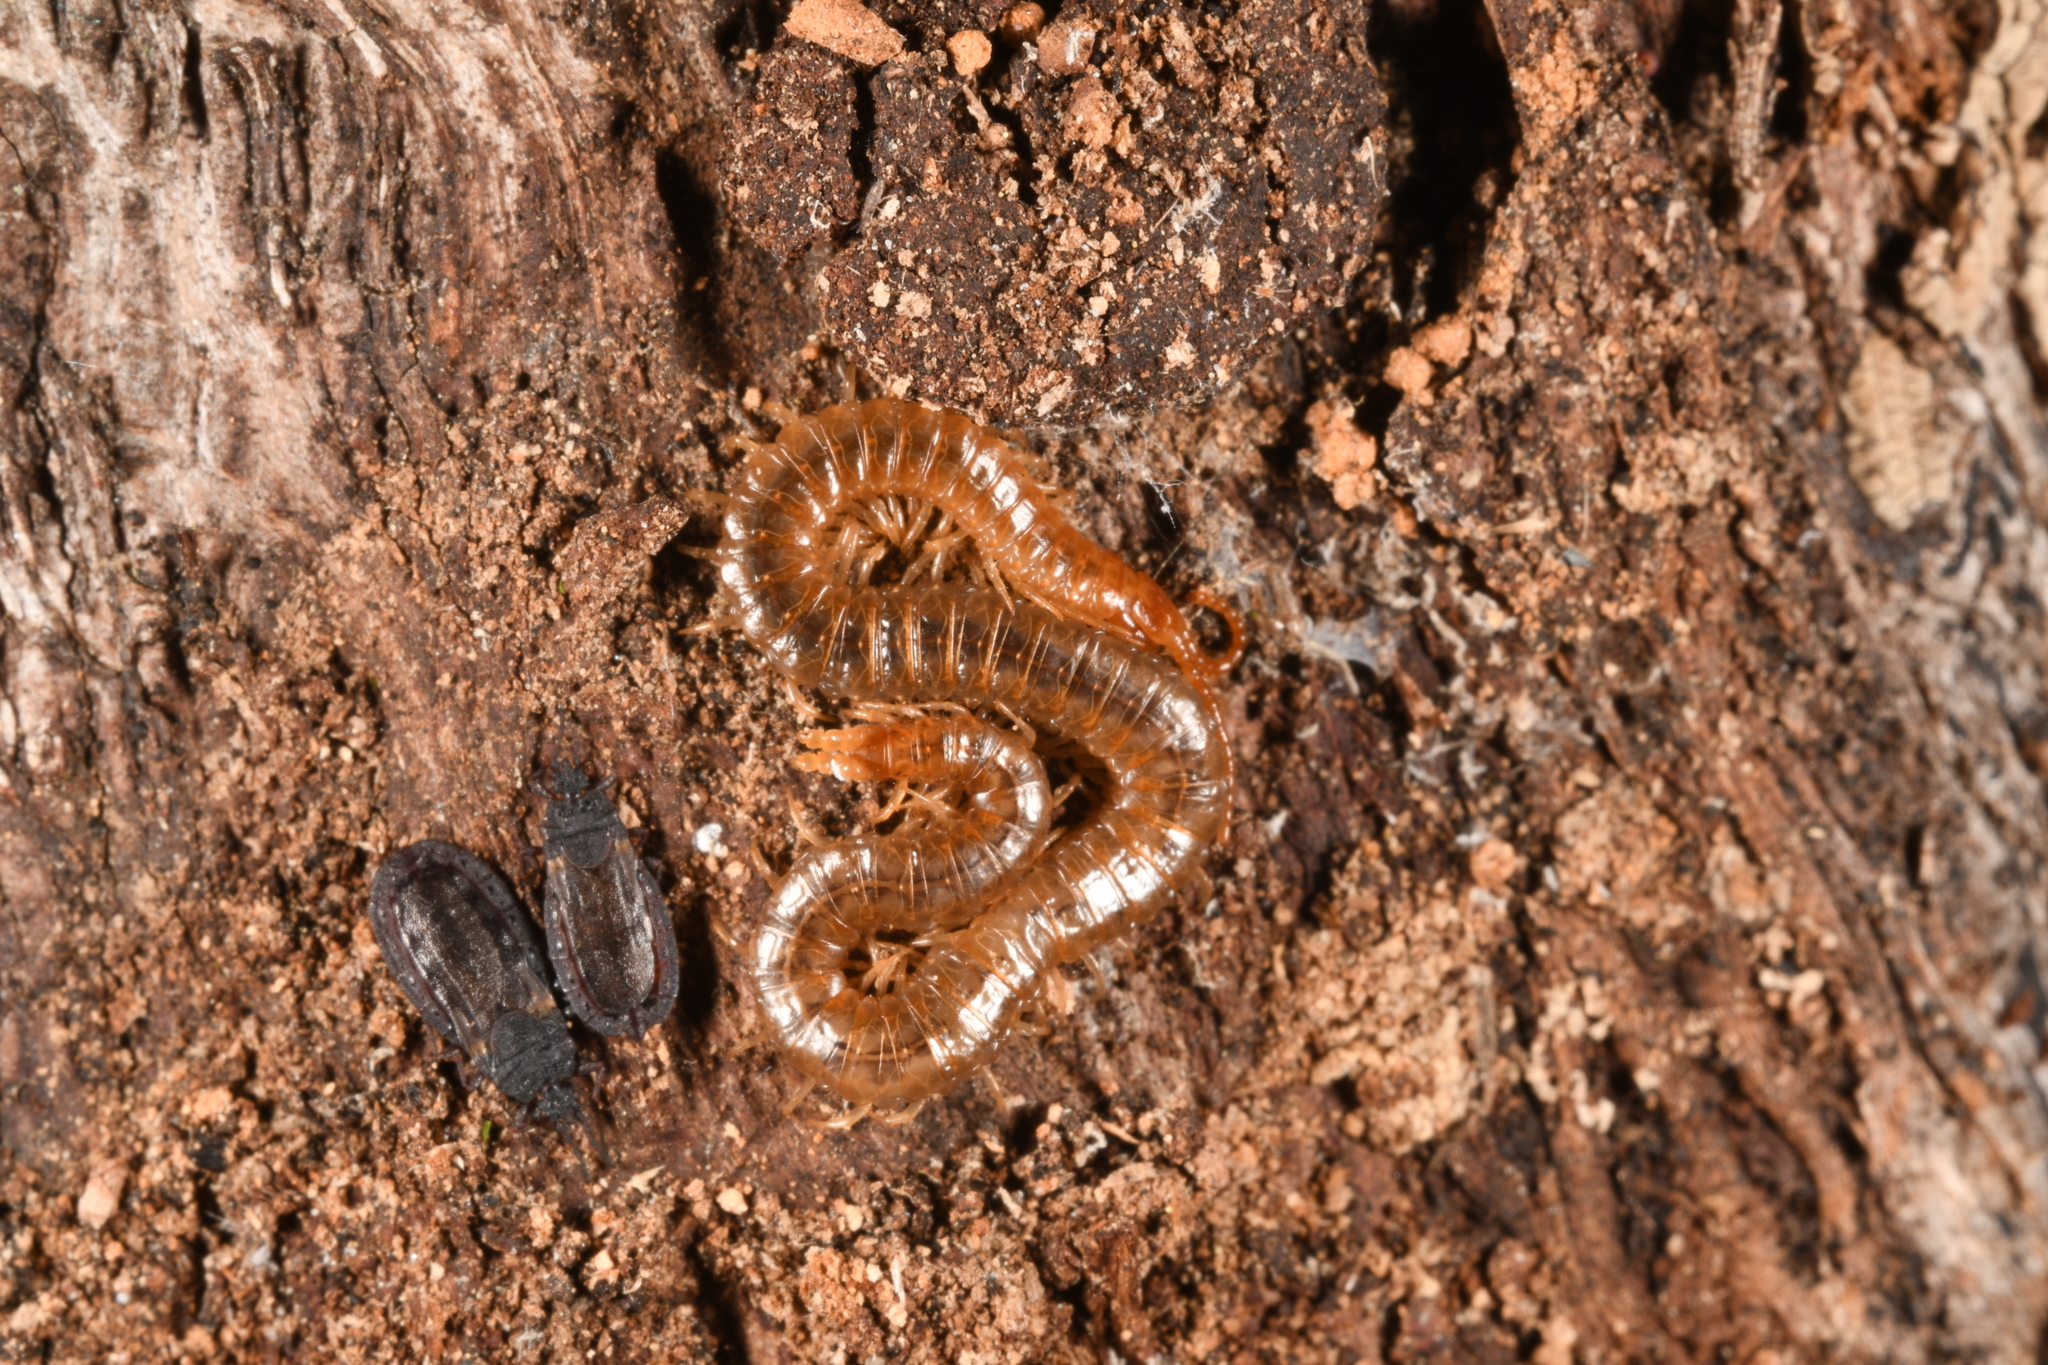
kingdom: Animalia
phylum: Arthropoda
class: Chilopoda
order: Geophilomorpha
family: Geophilidae
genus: Geophilus
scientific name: Geophilus carpophagus
